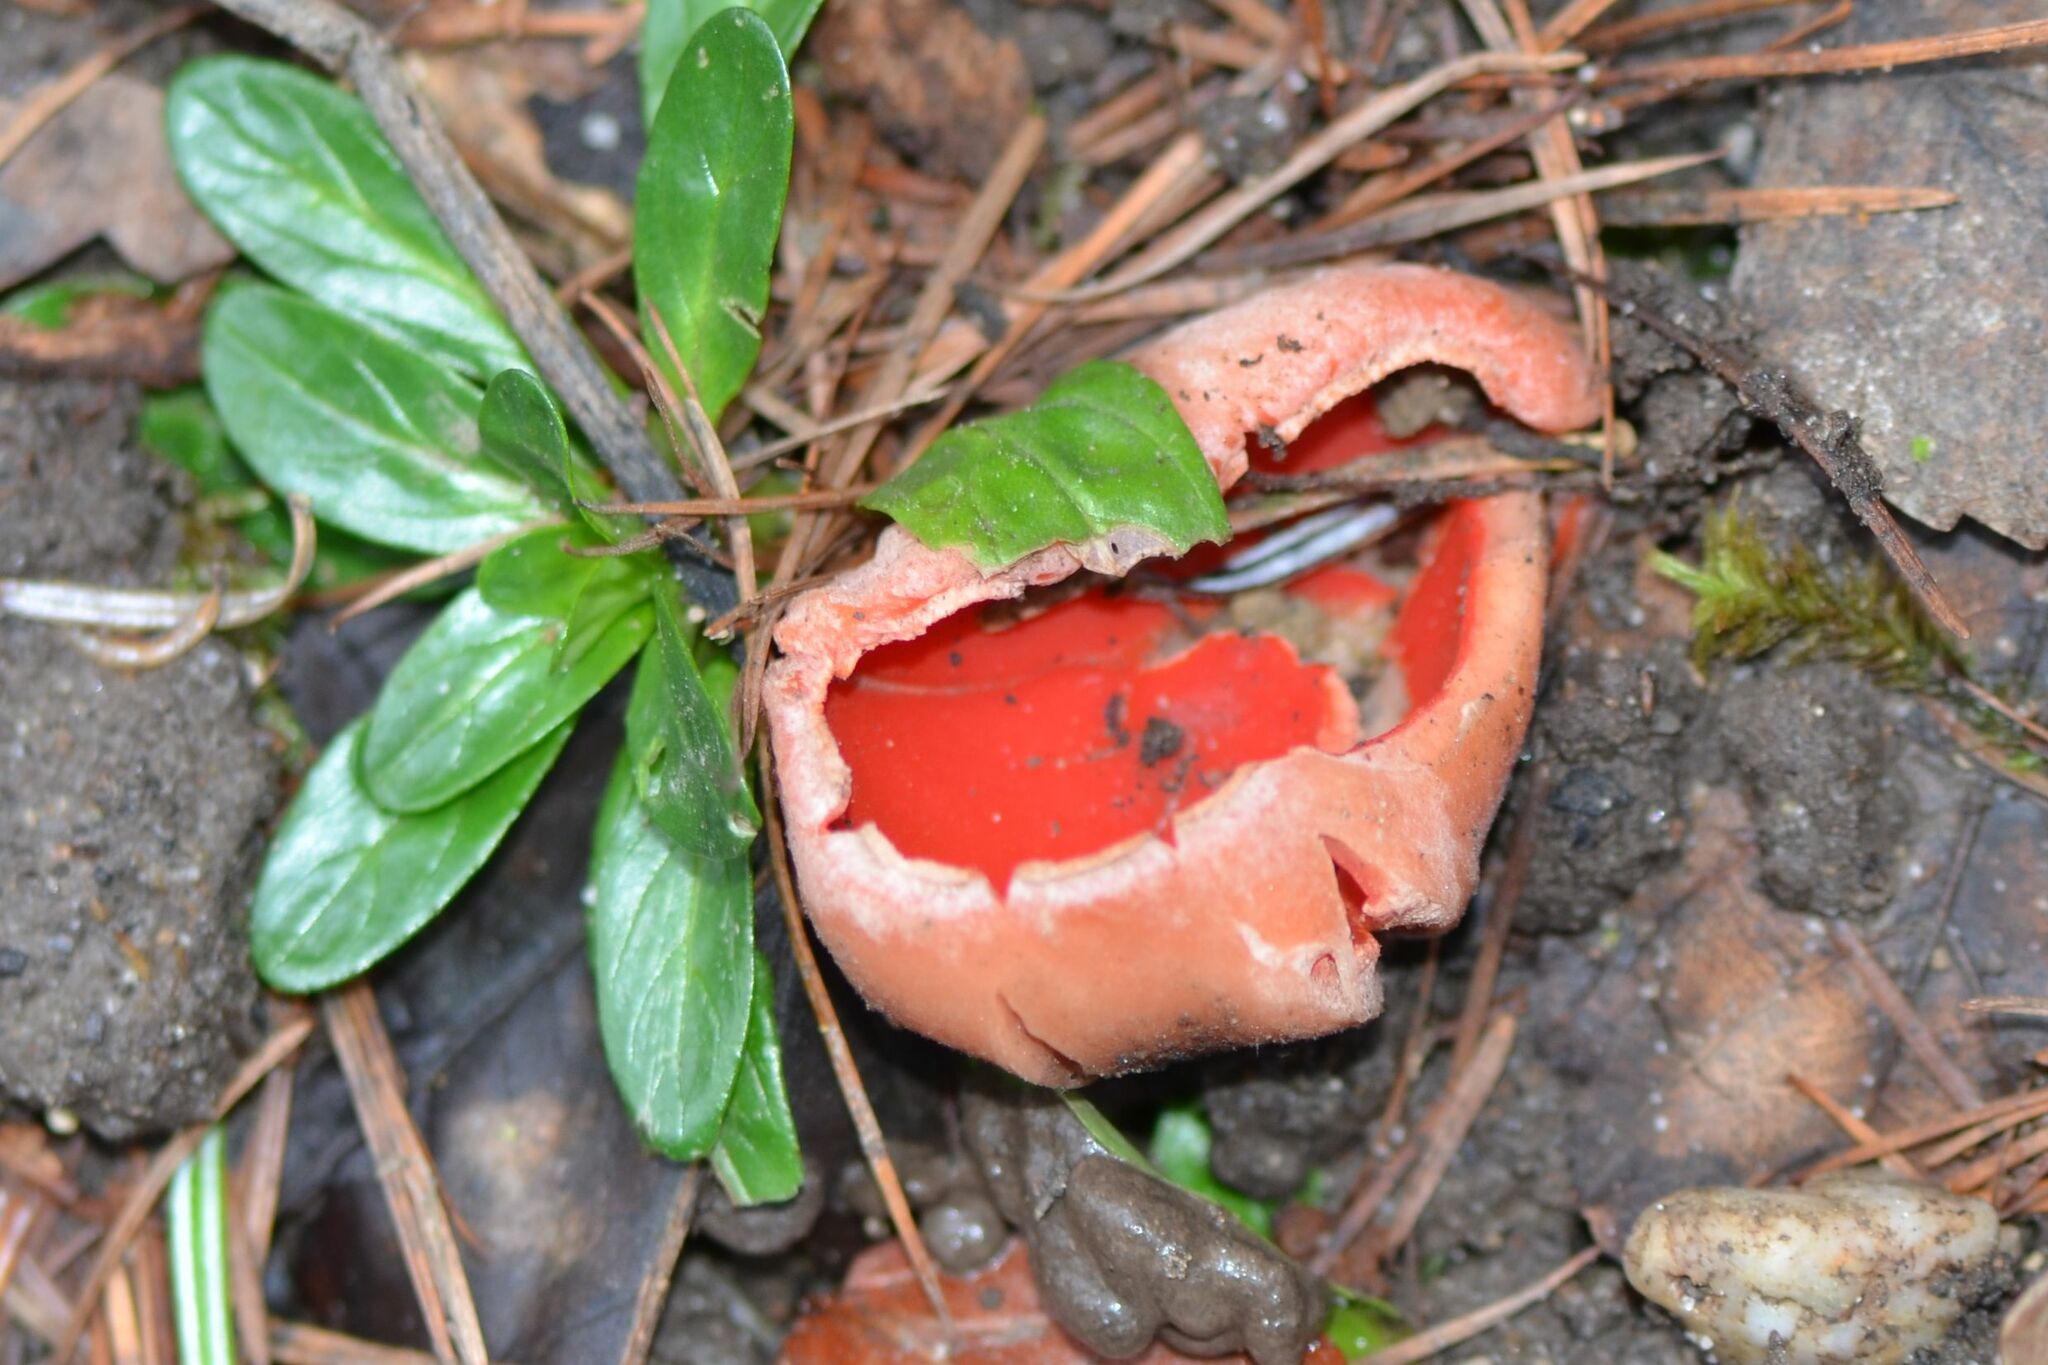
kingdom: Fungi
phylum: Ascomycota
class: Pezizomycetes
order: Pezizales
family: Sarcoscyphaceae
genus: Sarcoscypha
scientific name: Sarcoscypha
